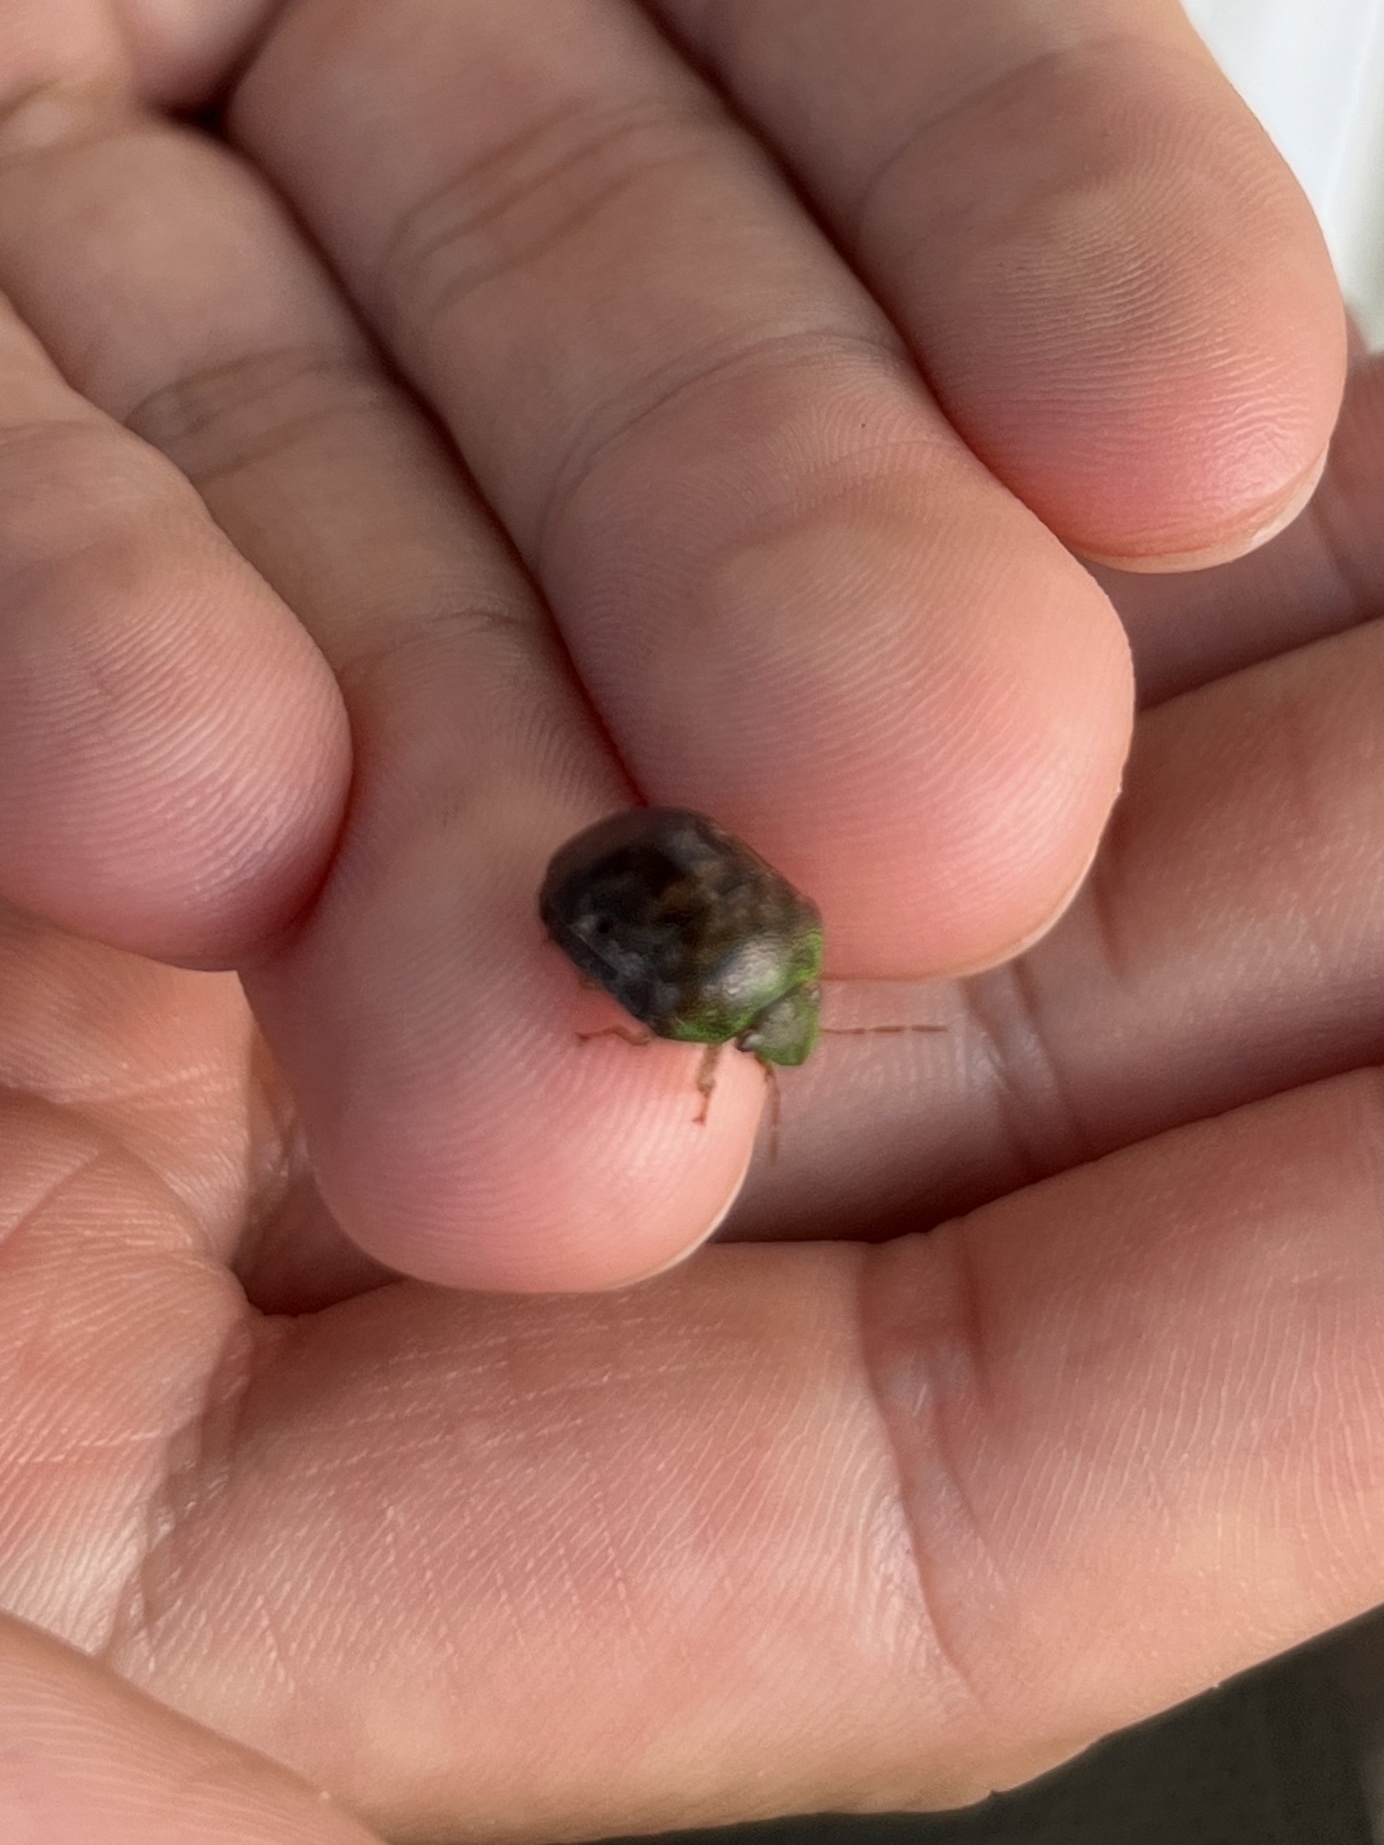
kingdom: Animalia
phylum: Arthropoda
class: Insecta
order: Hemiptera
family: Scutelleridae
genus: Diolcus
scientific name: Diolcus chrysorrhoeus
